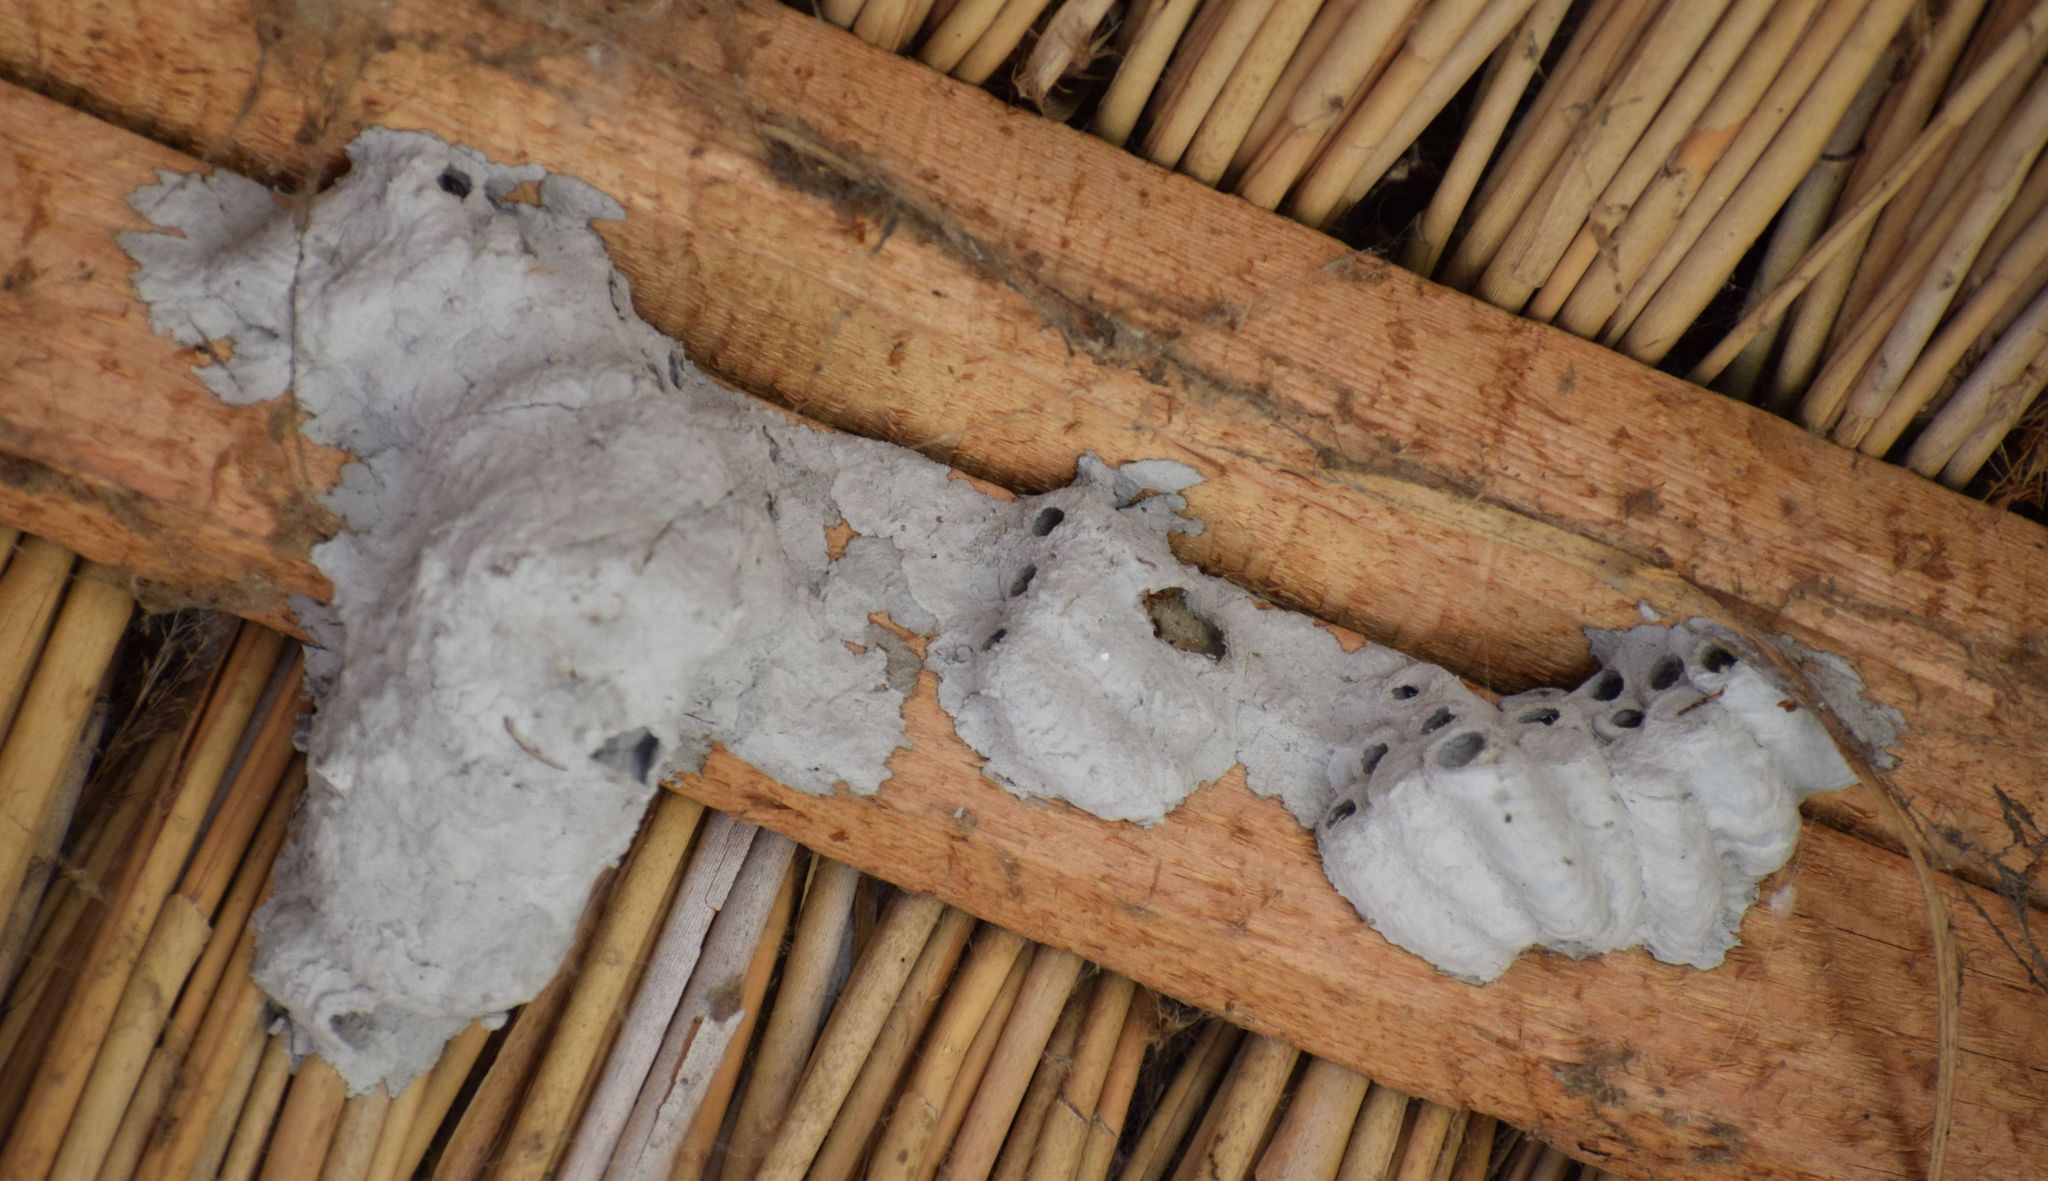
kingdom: Animalia
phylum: Arthropoda
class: Insecta
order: Hymenoptera
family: Sphecidae
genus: Sceliphron
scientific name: Sceliphron
